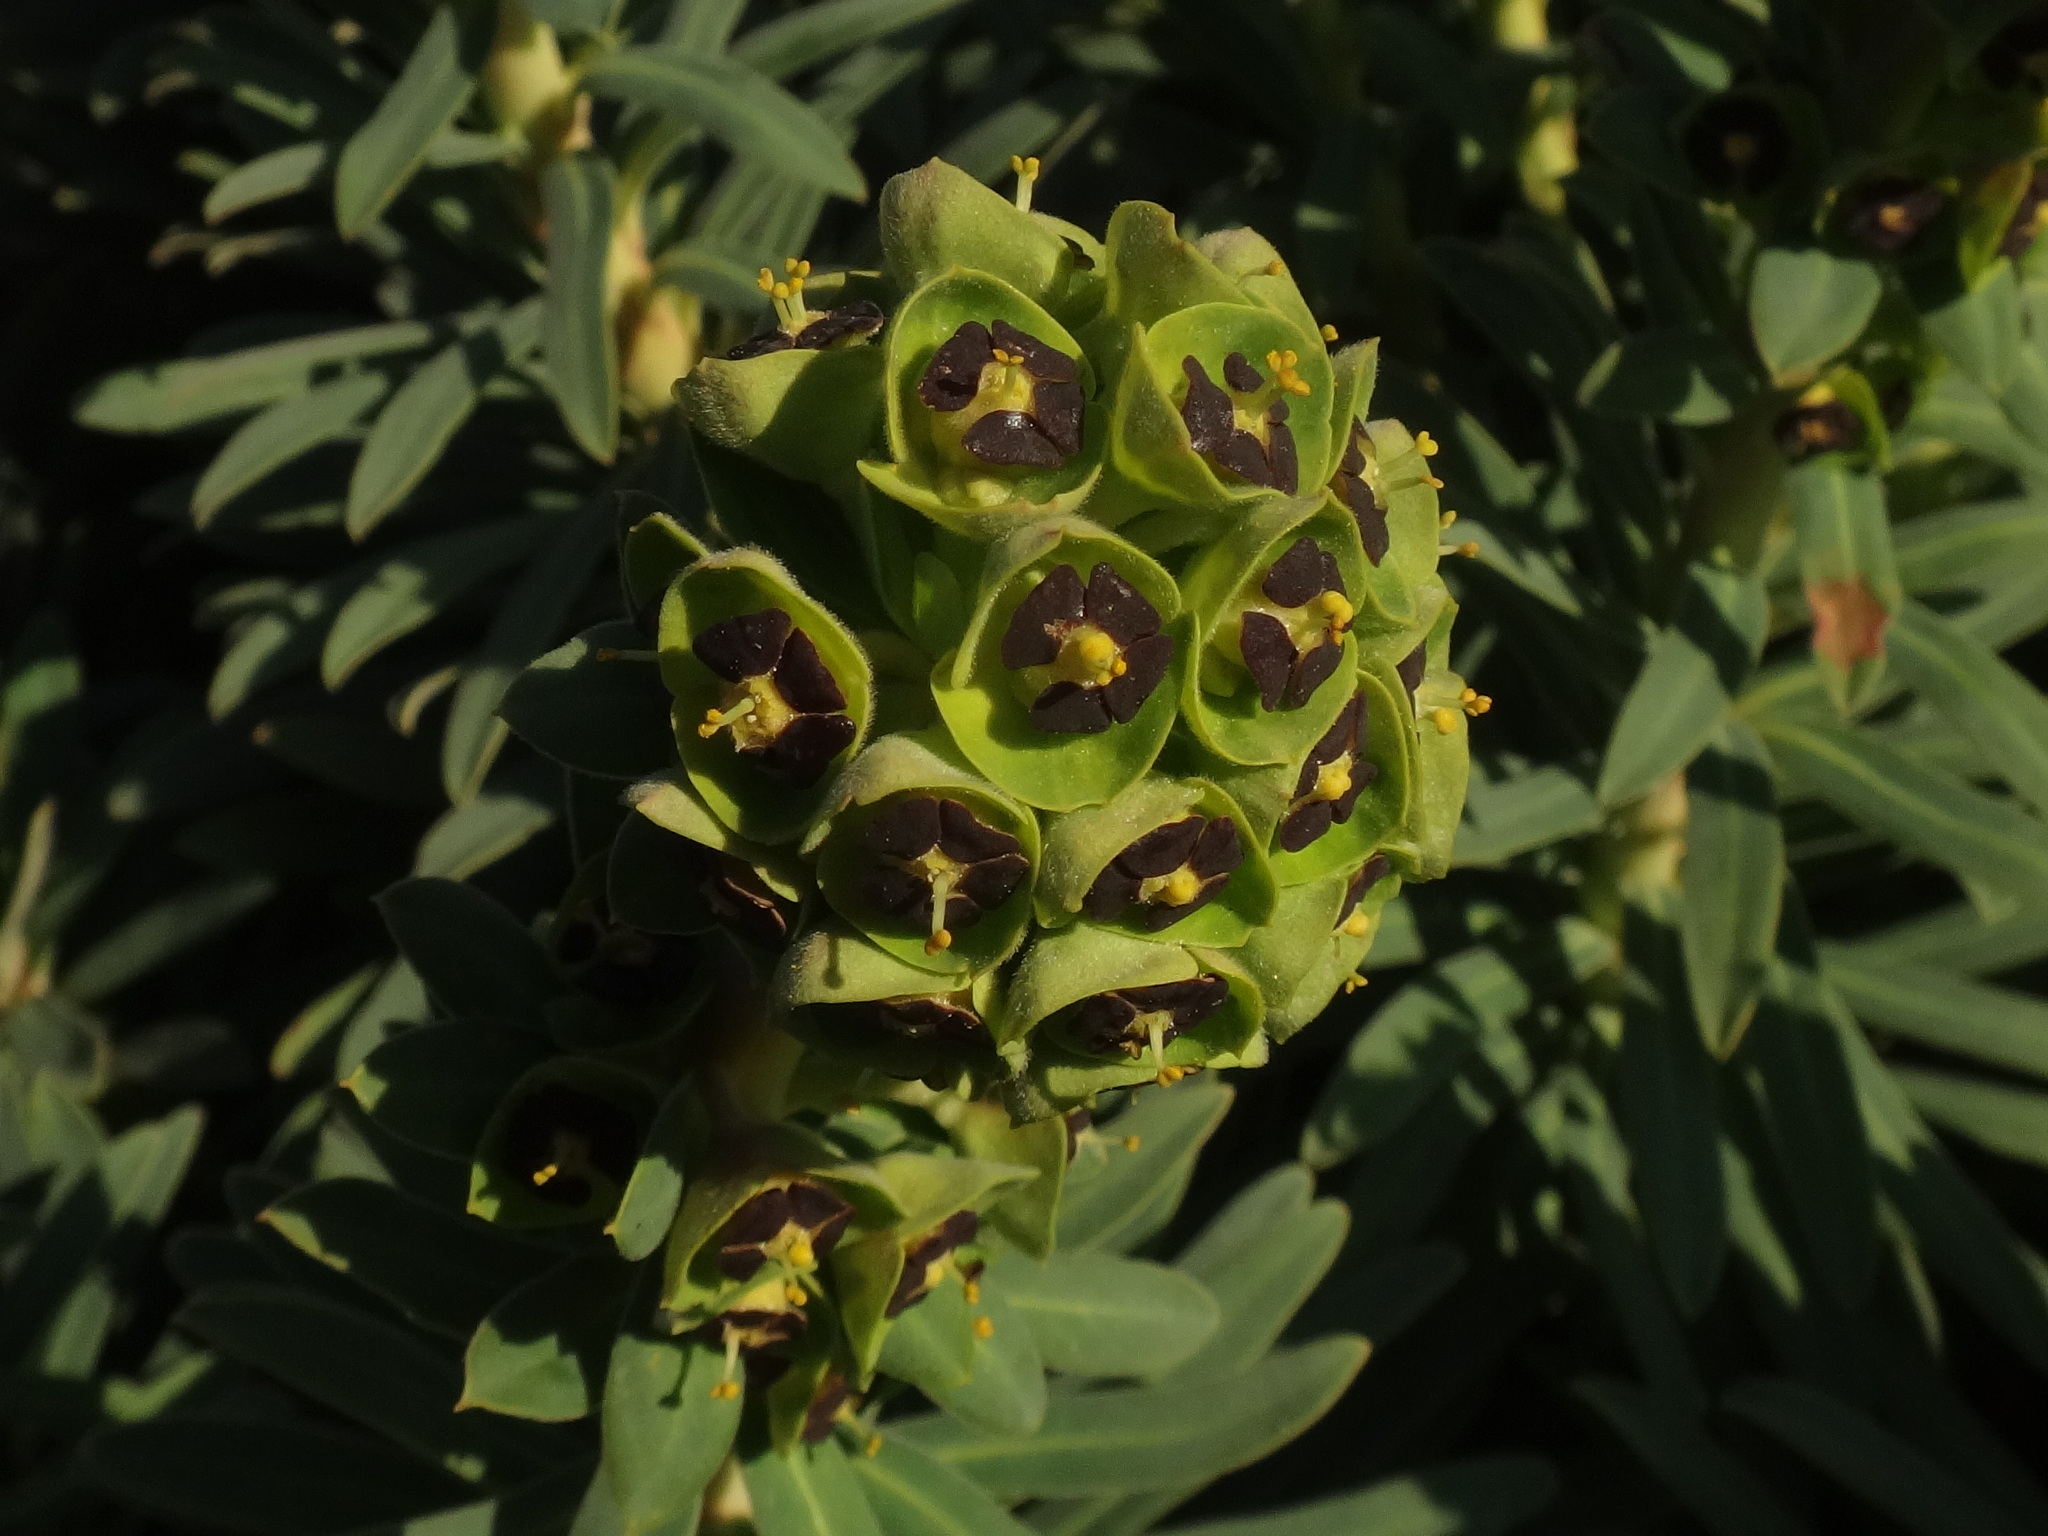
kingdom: Plantae
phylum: Tracheophyta
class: Magnoliopsida
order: Malpighiales
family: Euphorbiaceae
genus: Euphorbia
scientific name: Euphorbia characias
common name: Mediterranean spurge
